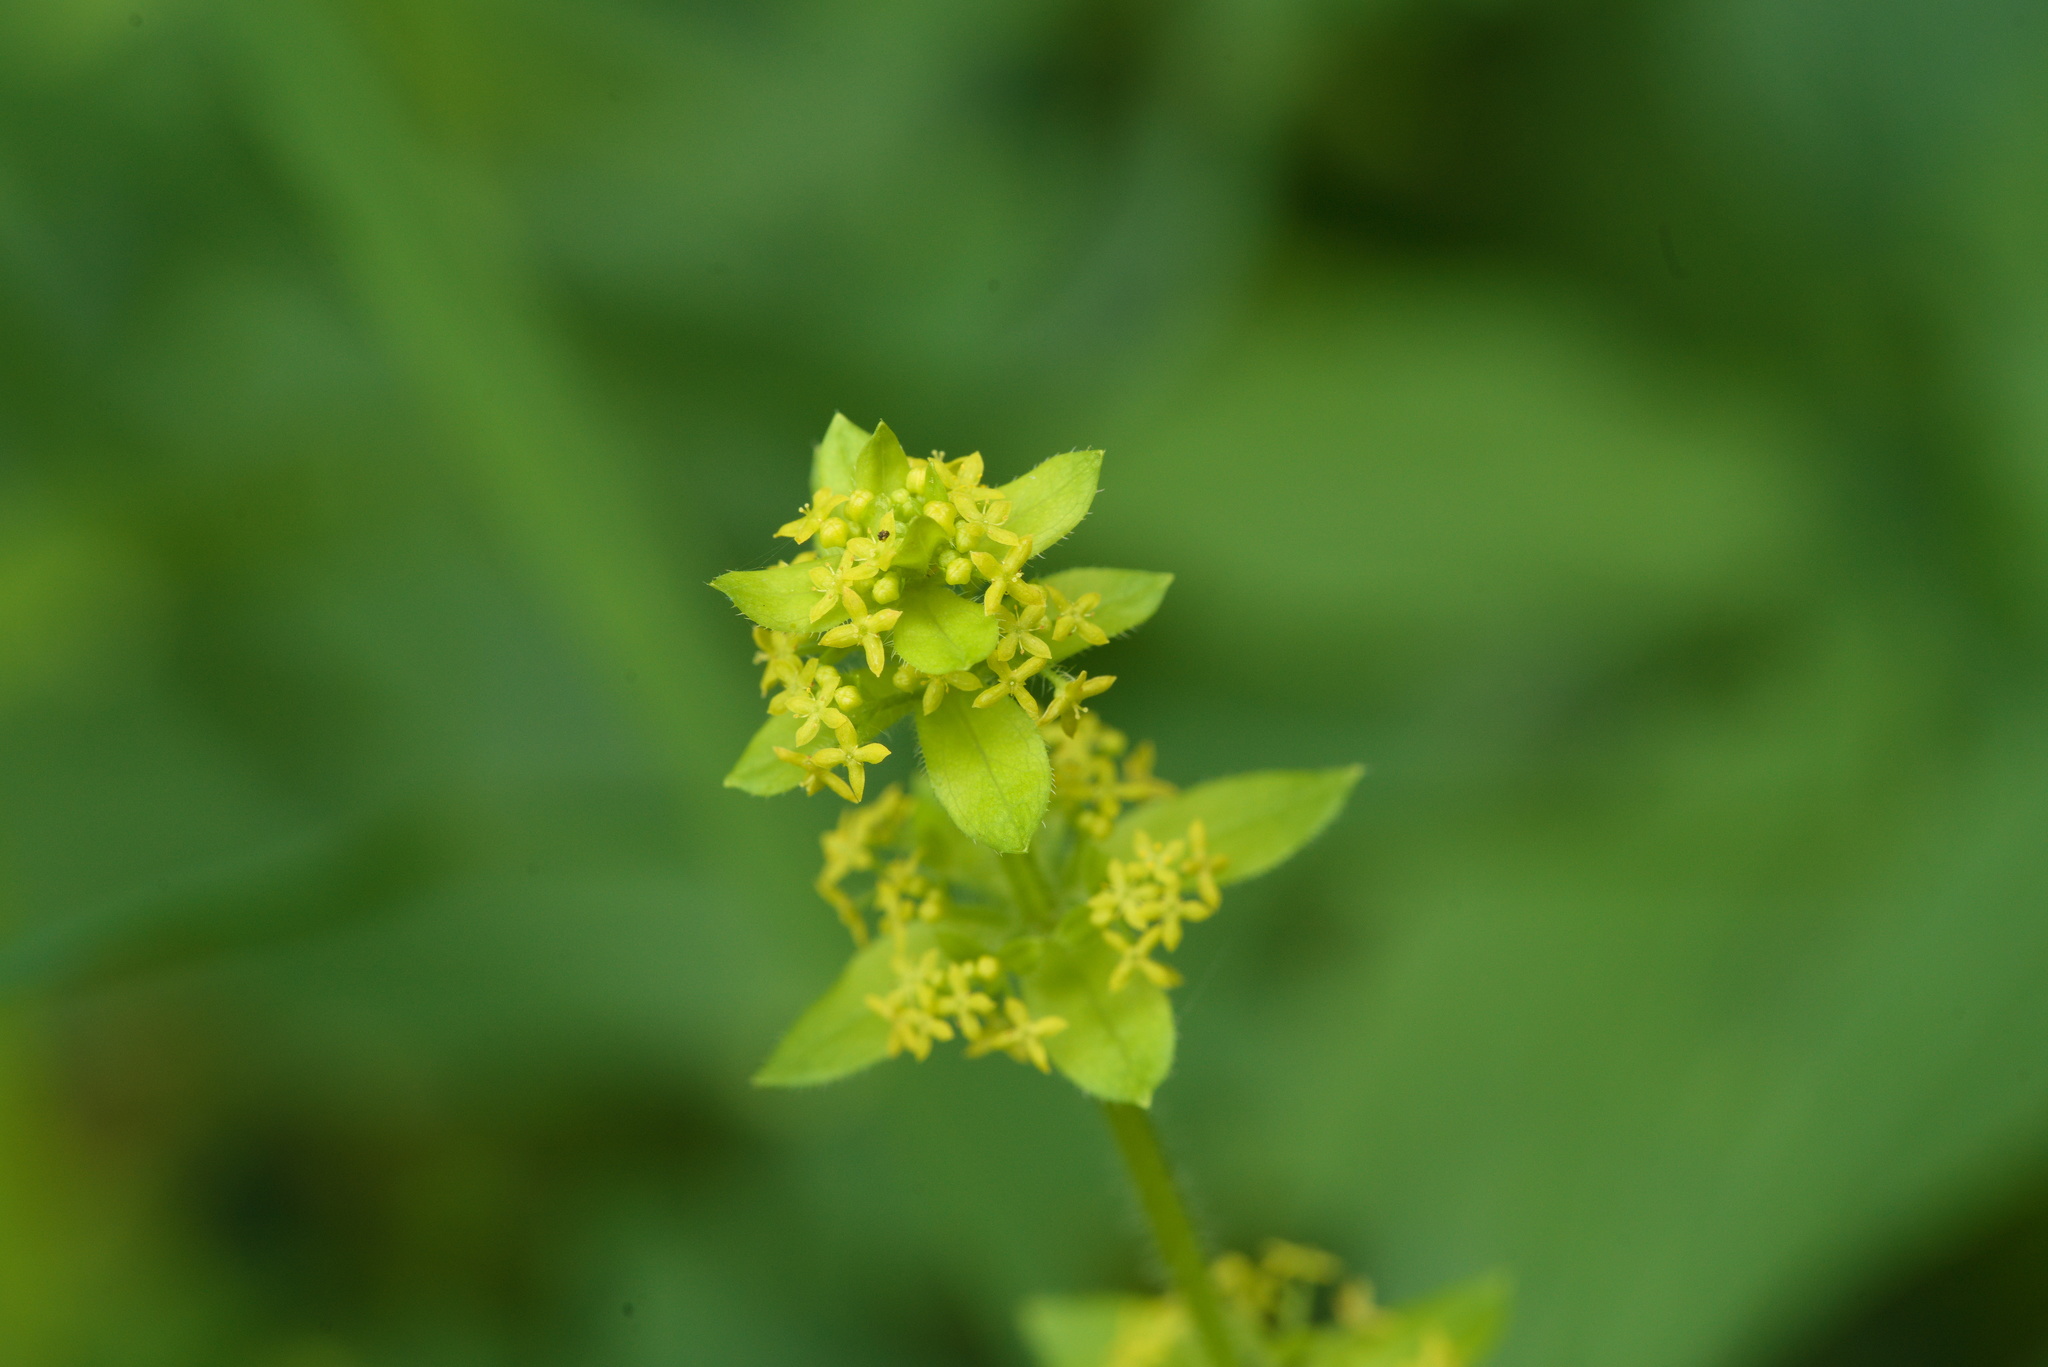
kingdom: Plantae
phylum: Tracheophyta
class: Magnoliopsida
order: Gentianales
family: Rubiaceae
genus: Cruciata
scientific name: Cruciata laevipes
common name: Crosswort
